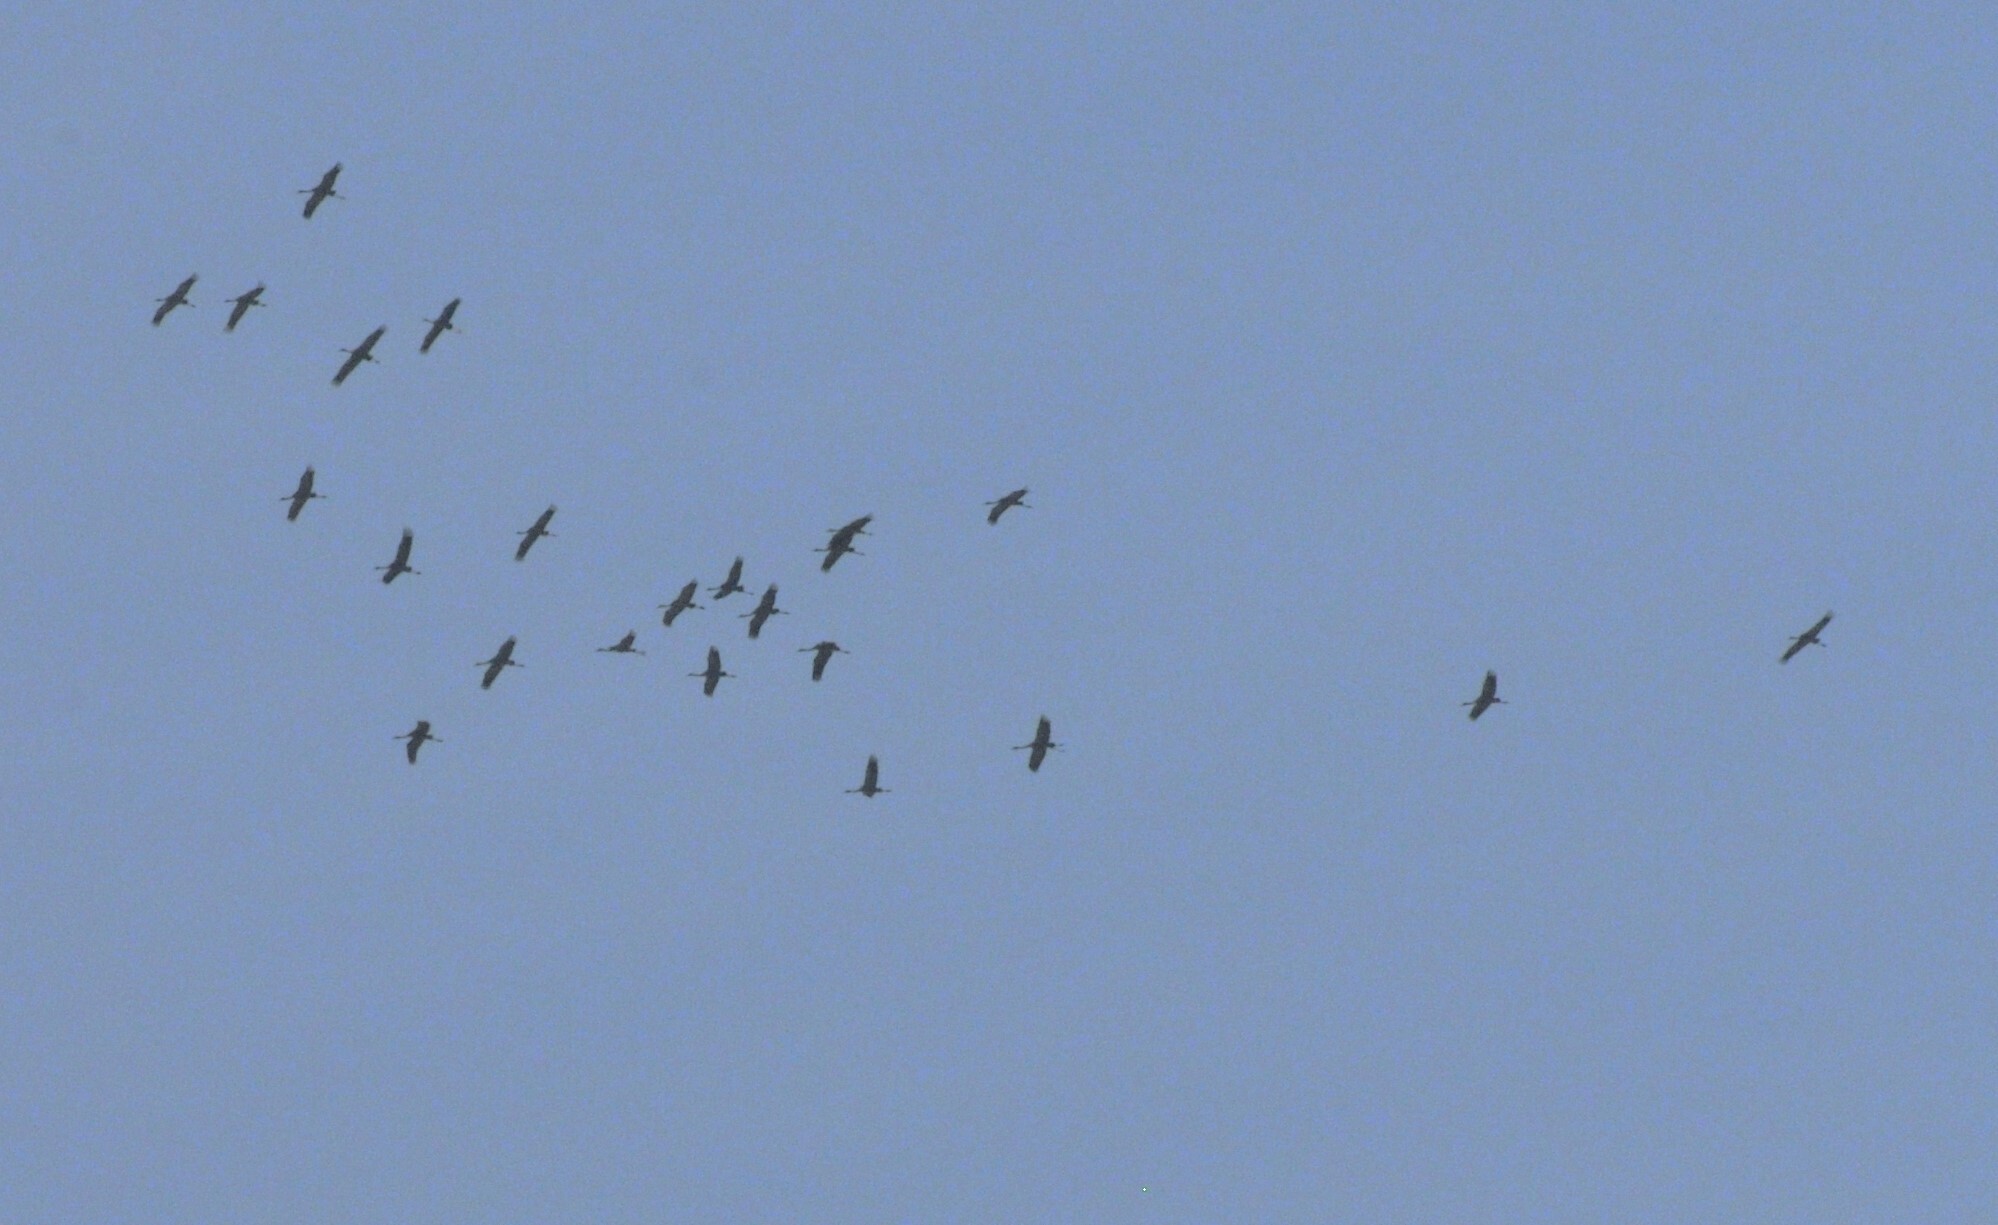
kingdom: Animalia
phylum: Chordata
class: Aves
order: Gruiformes
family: Gruidae
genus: Grus
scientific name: Grus grus
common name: Common crane
